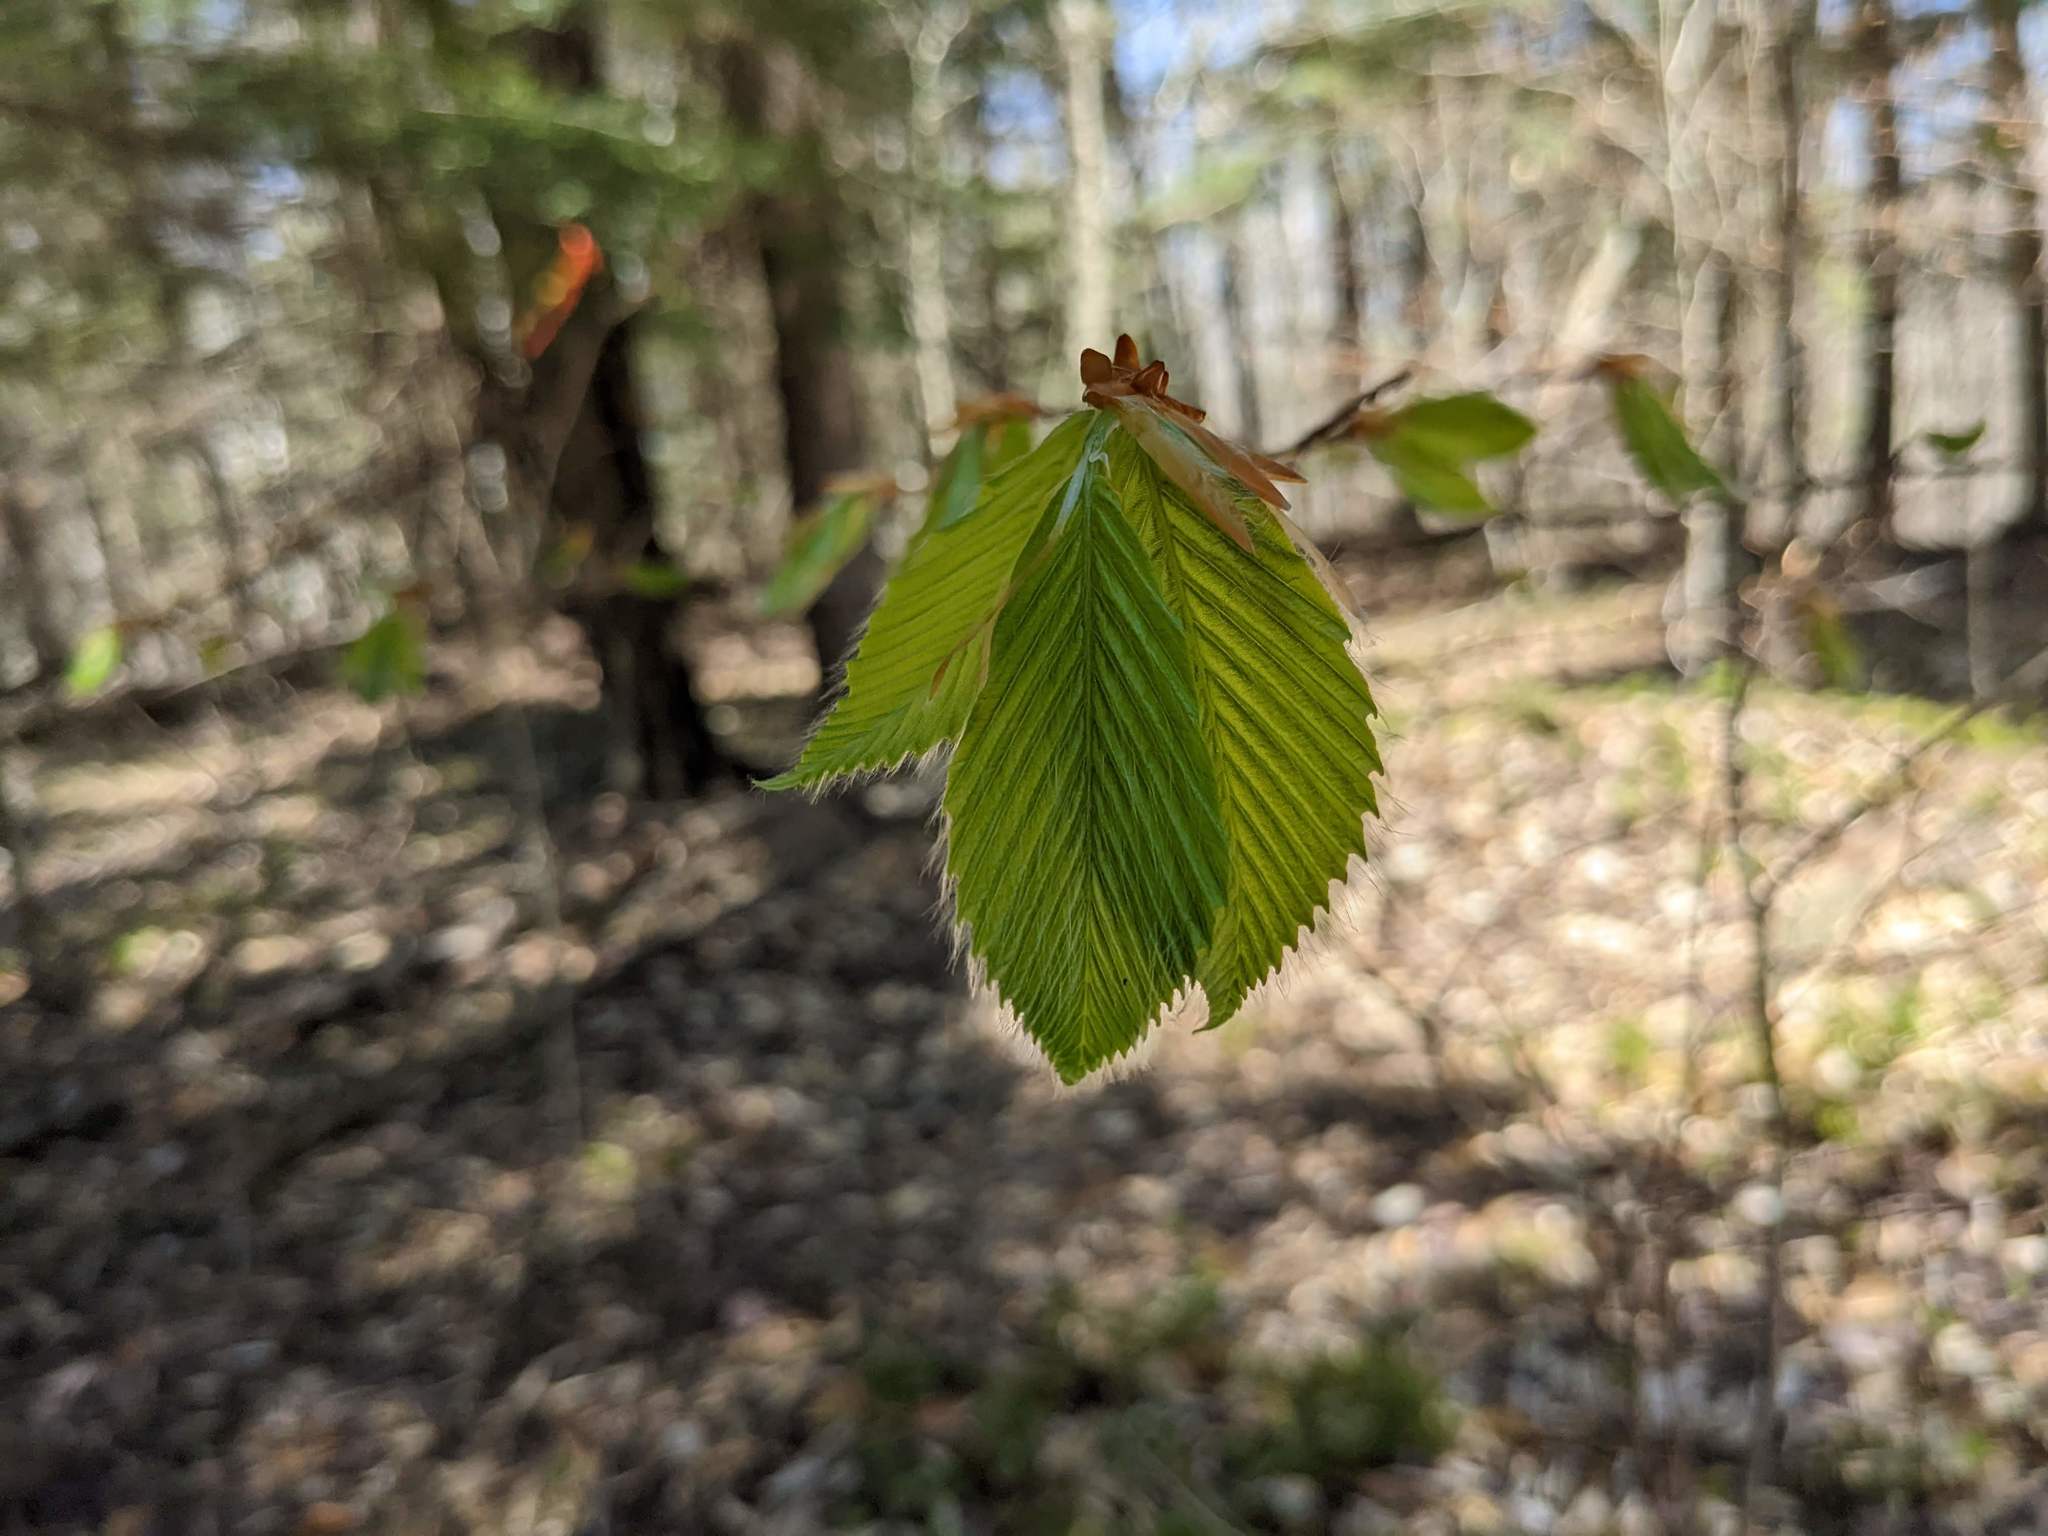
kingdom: Plantae
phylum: Tracheophyta
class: Magnoliopsida
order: Fagales
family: Fagaceae
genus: Fagus
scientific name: Fagus grandifolia
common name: American beech
